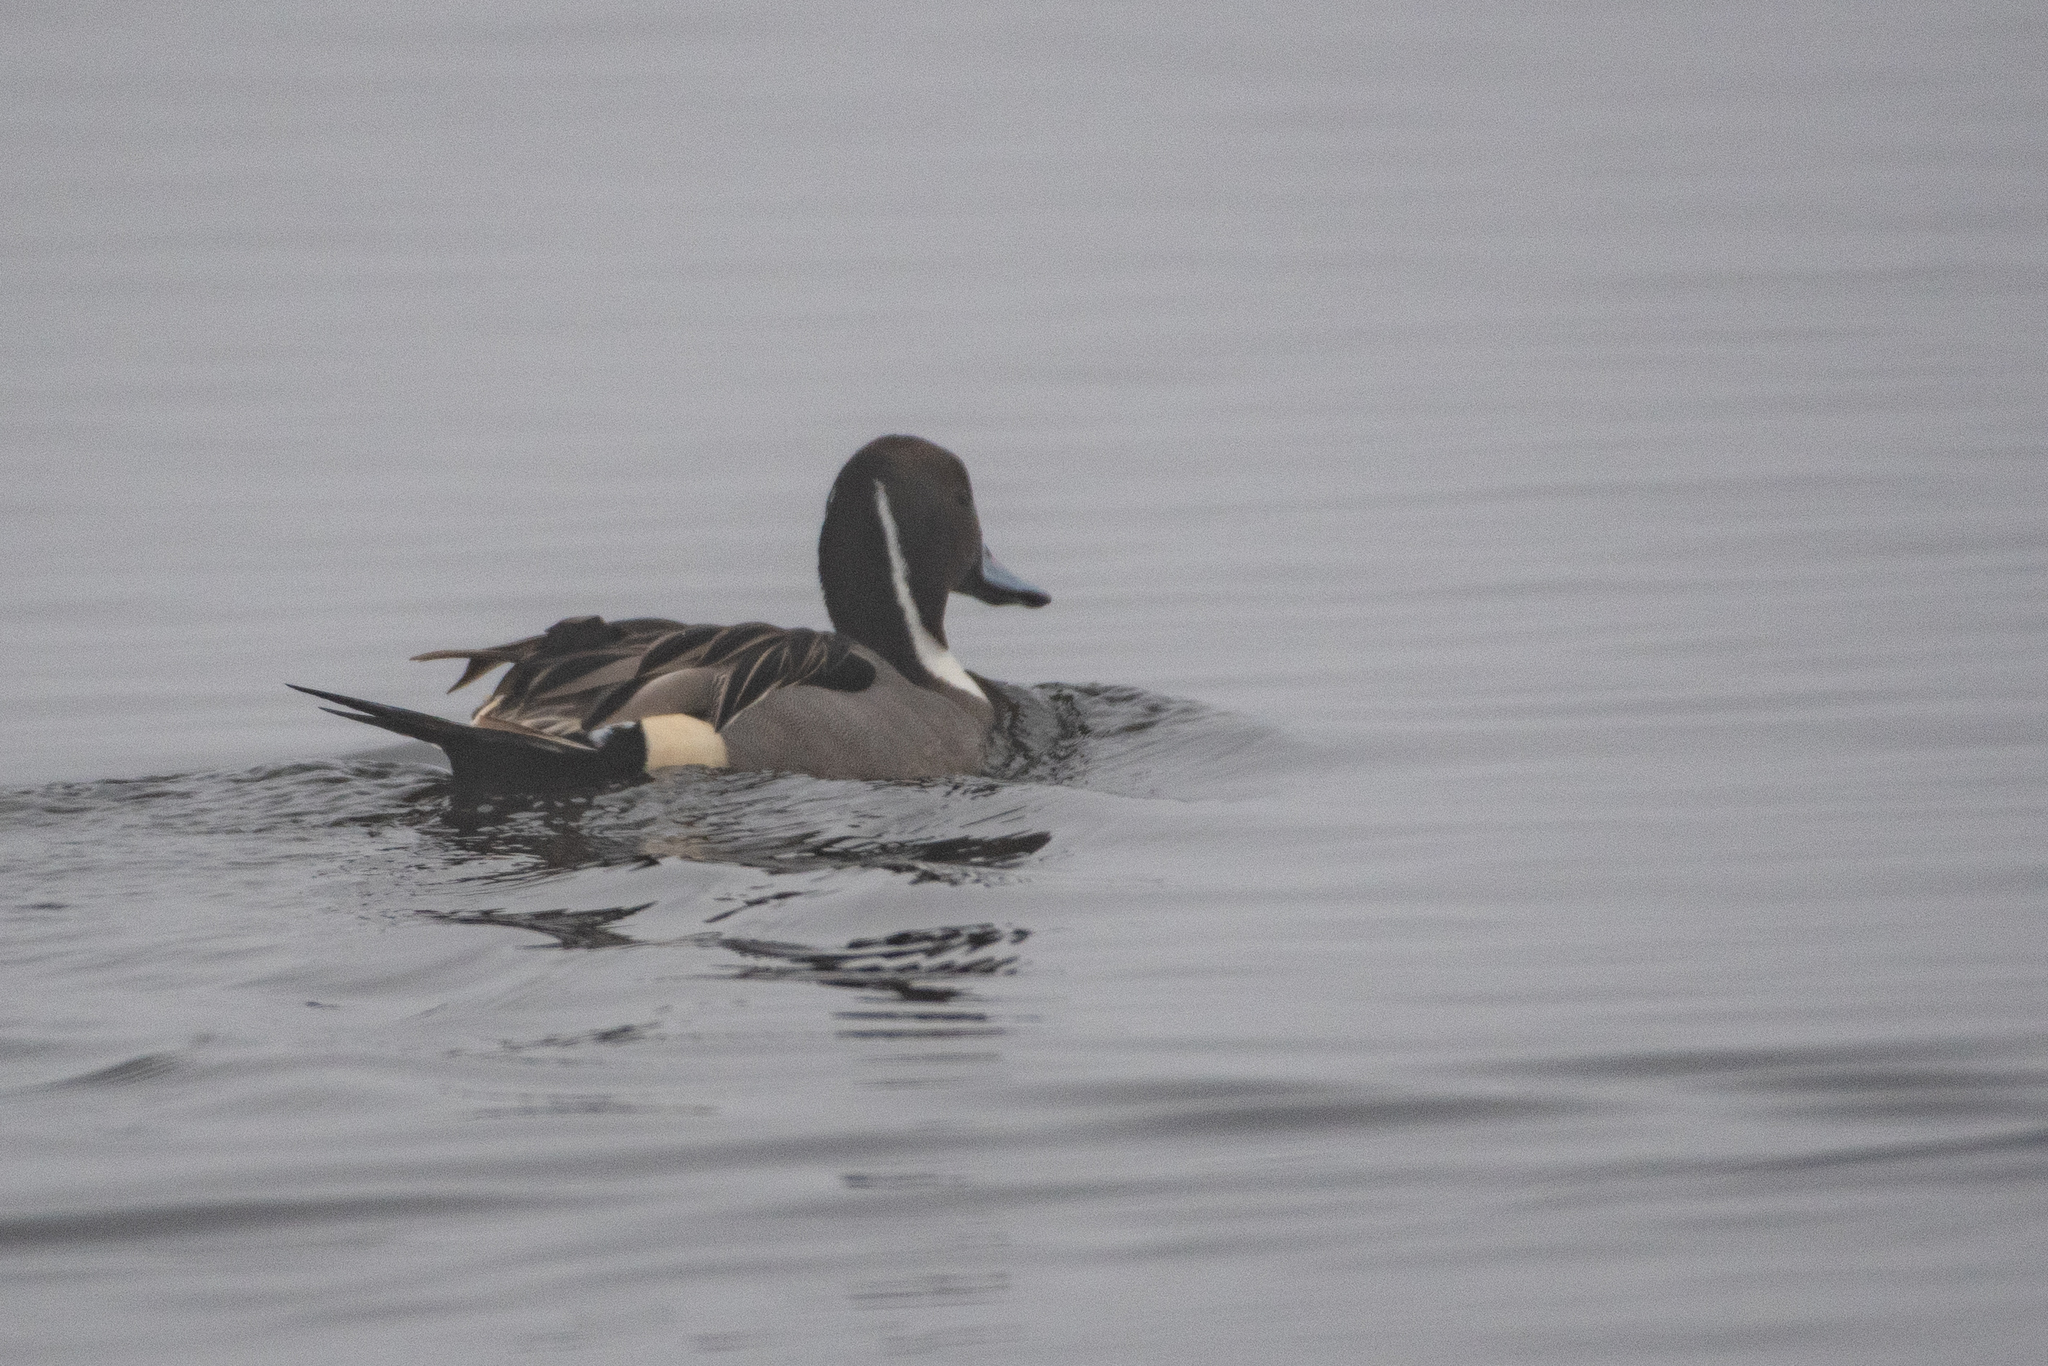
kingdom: Animalia
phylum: Chordata
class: Aves
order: Anseriformes
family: Anatidae
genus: Anas
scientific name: Anas acuta
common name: Northern pintail
